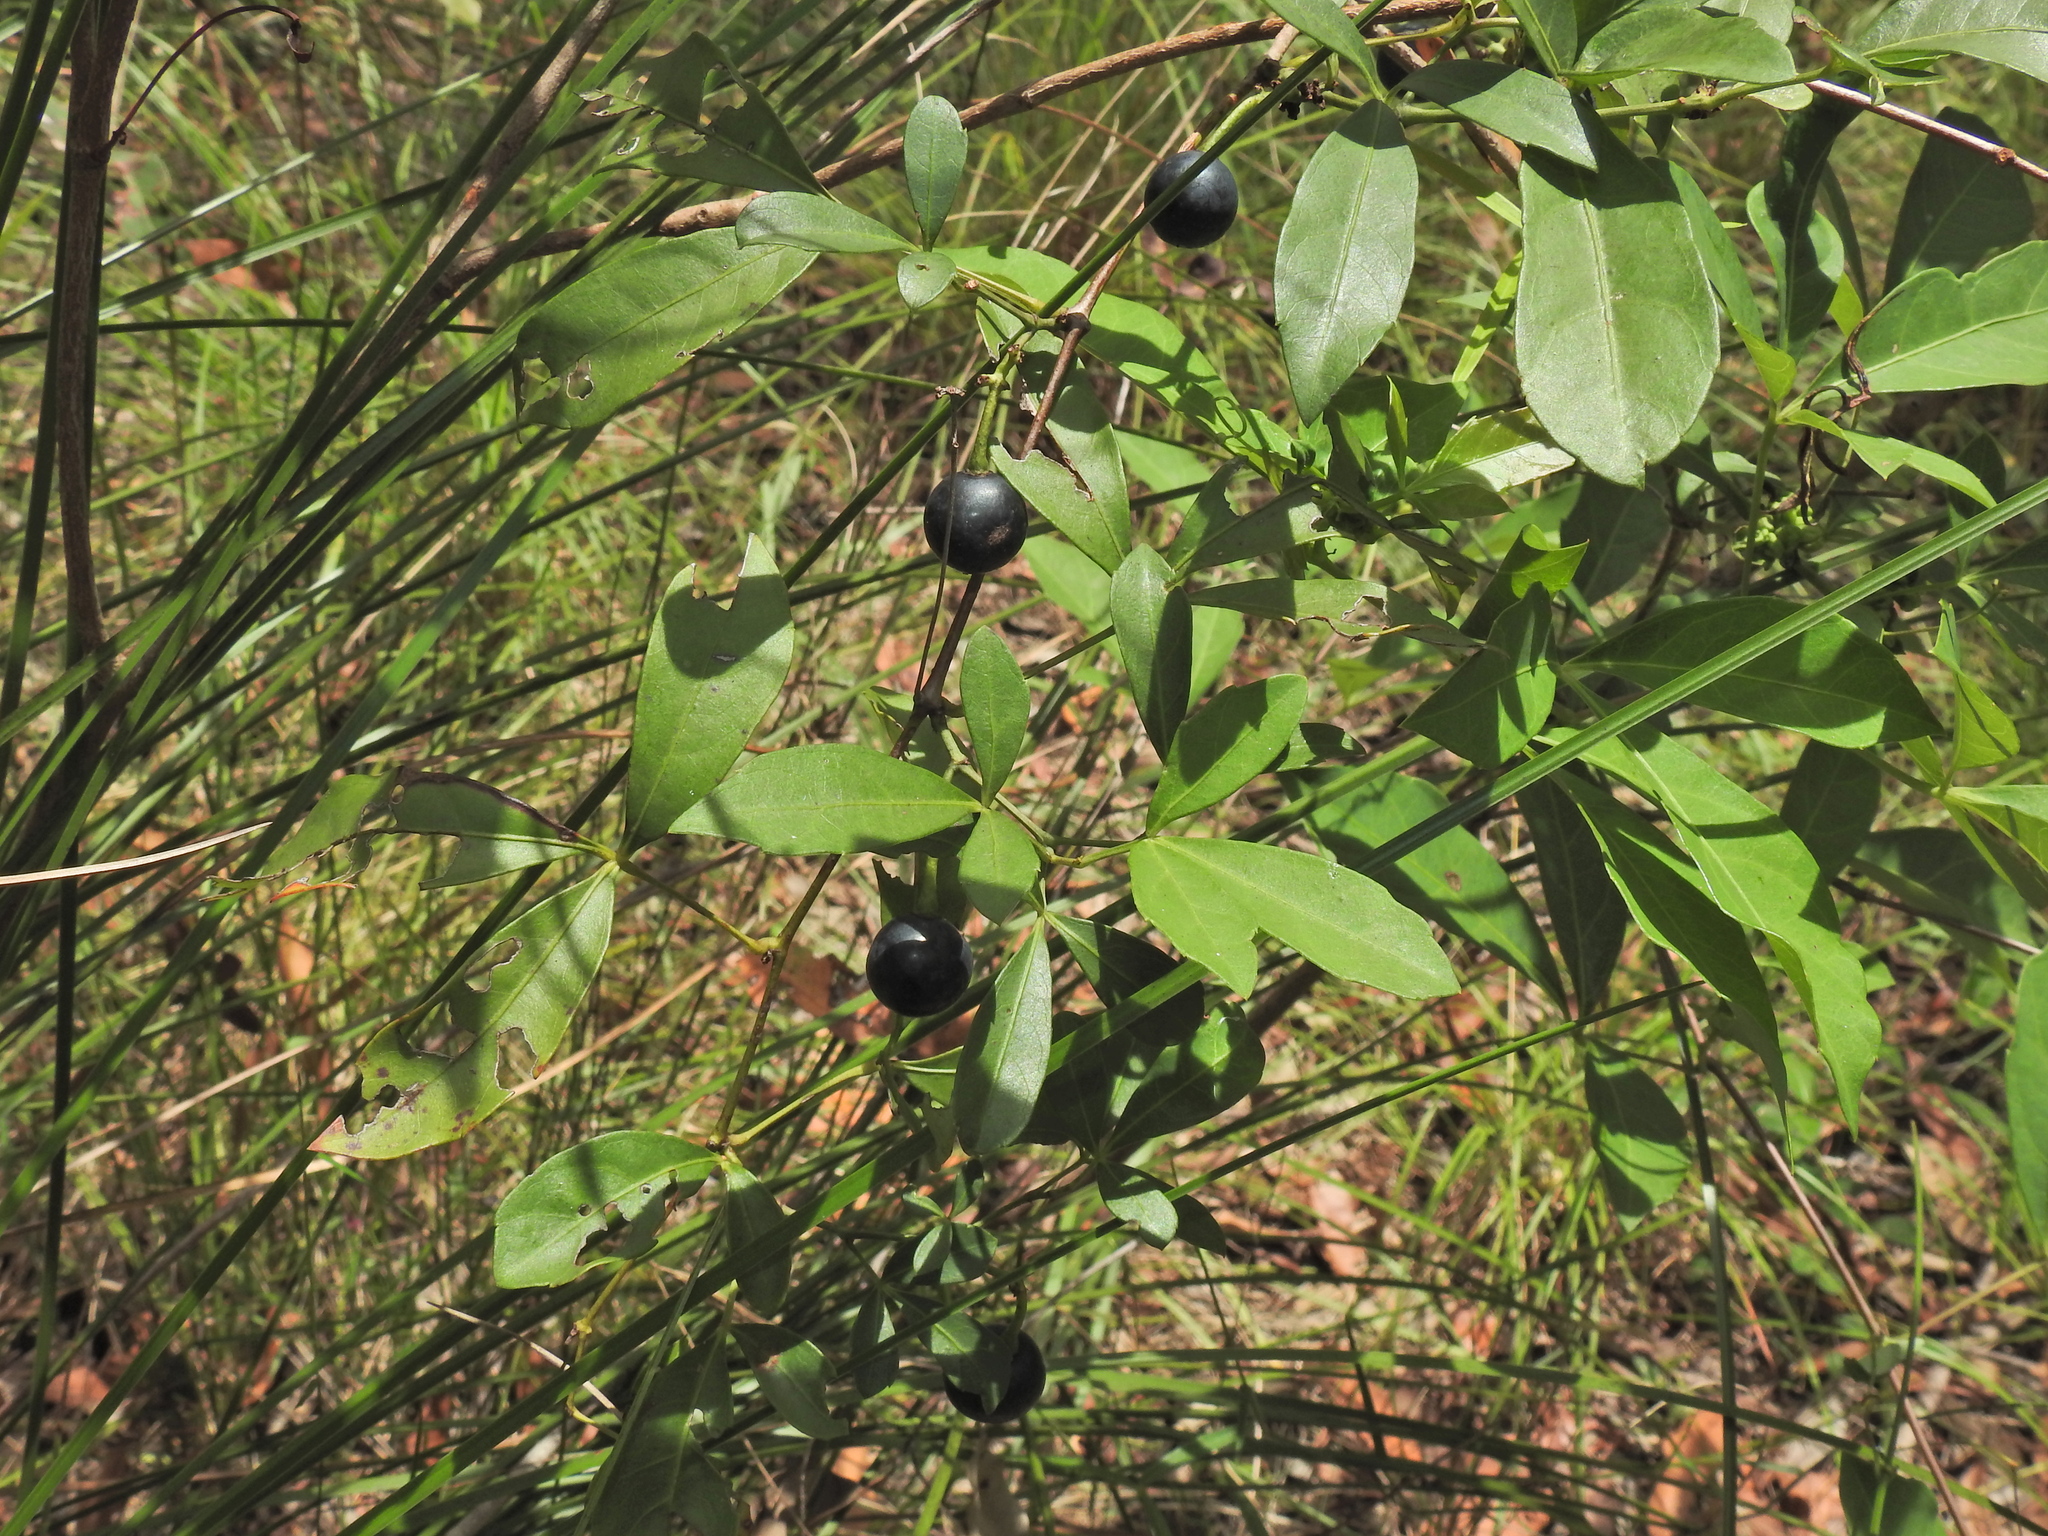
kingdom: Plantae
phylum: Tracheophyta
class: Magnoliopsida
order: Vitales
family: Vitaceae
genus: Clematicissus
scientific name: Clematicissus opaca
